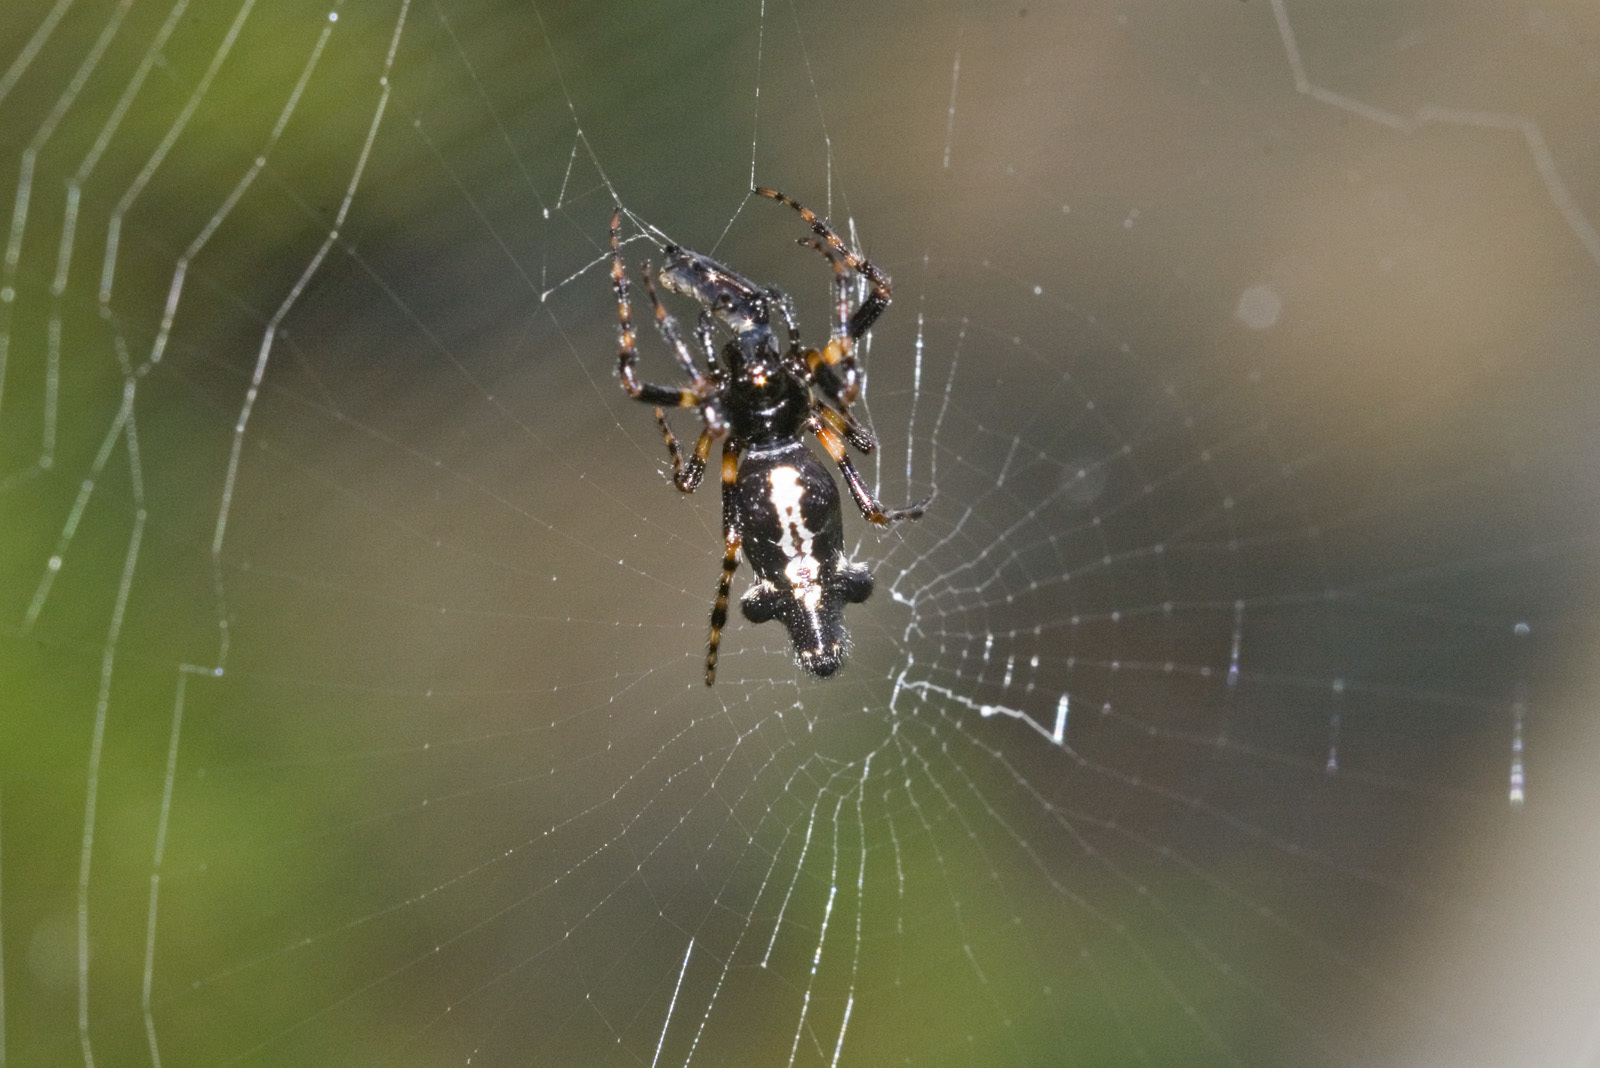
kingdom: Animalia
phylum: Arthropoda
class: Arachnida
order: Araneae
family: Araneidae
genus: Cyclosa
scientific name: Cyclosa trilobata
